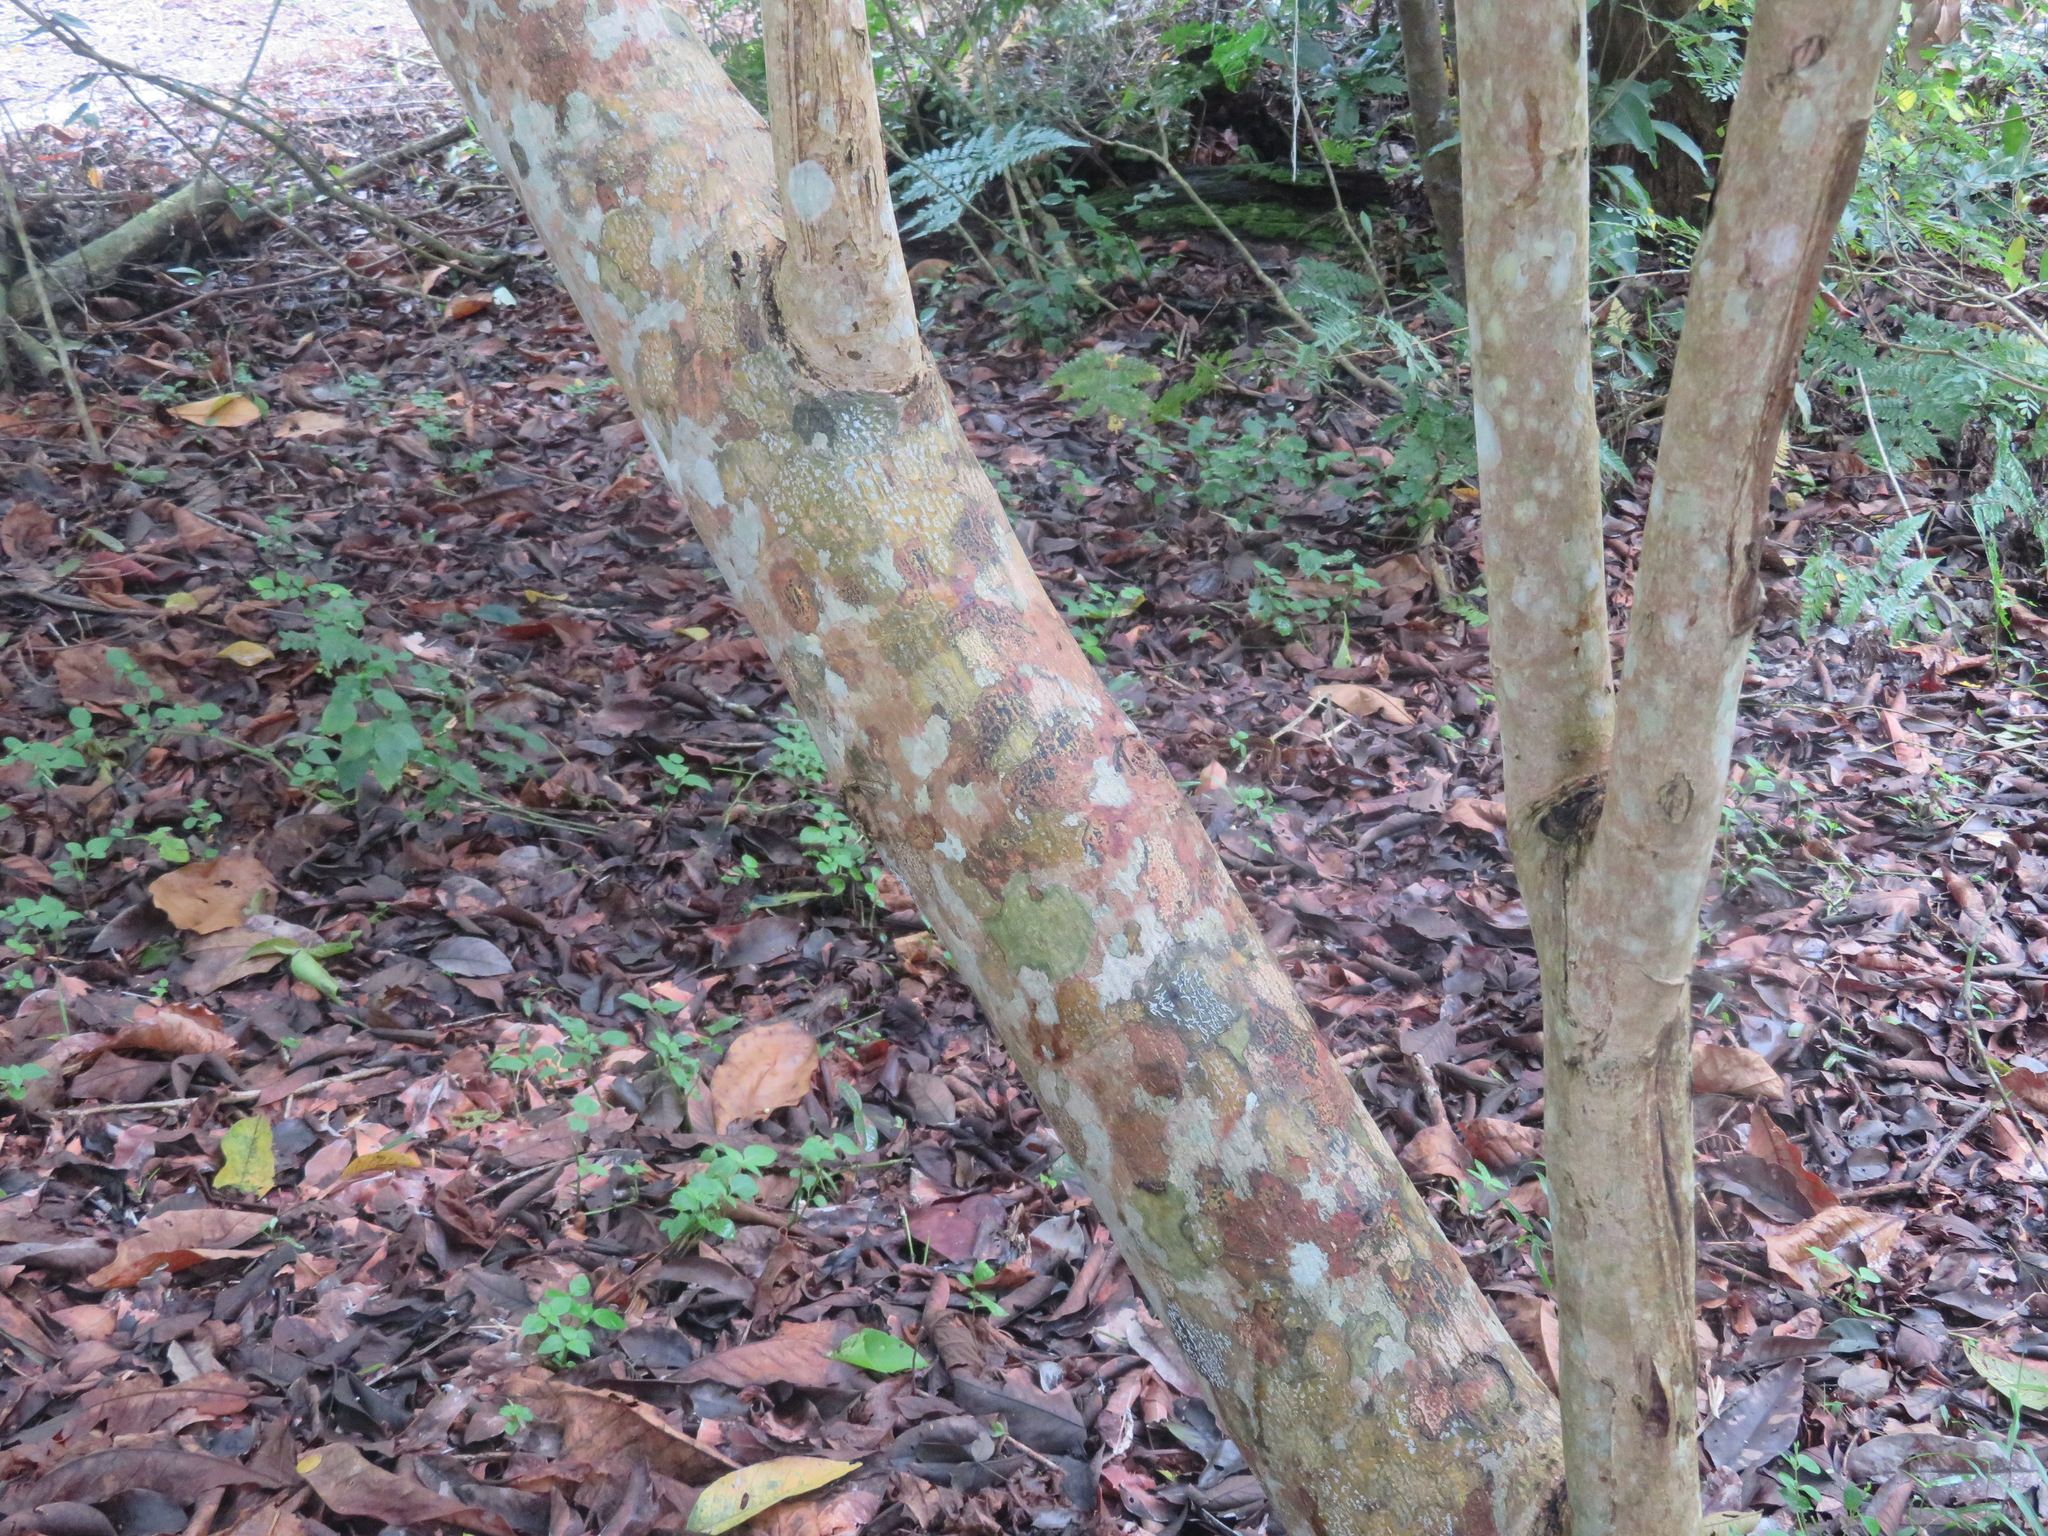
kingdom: Plantae
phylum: Tracheophyta
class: Magnoliopsida
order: Myrtales
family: Combretaceae
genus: Terminalia
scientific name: Terminalia catappa
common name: Tropical almond
